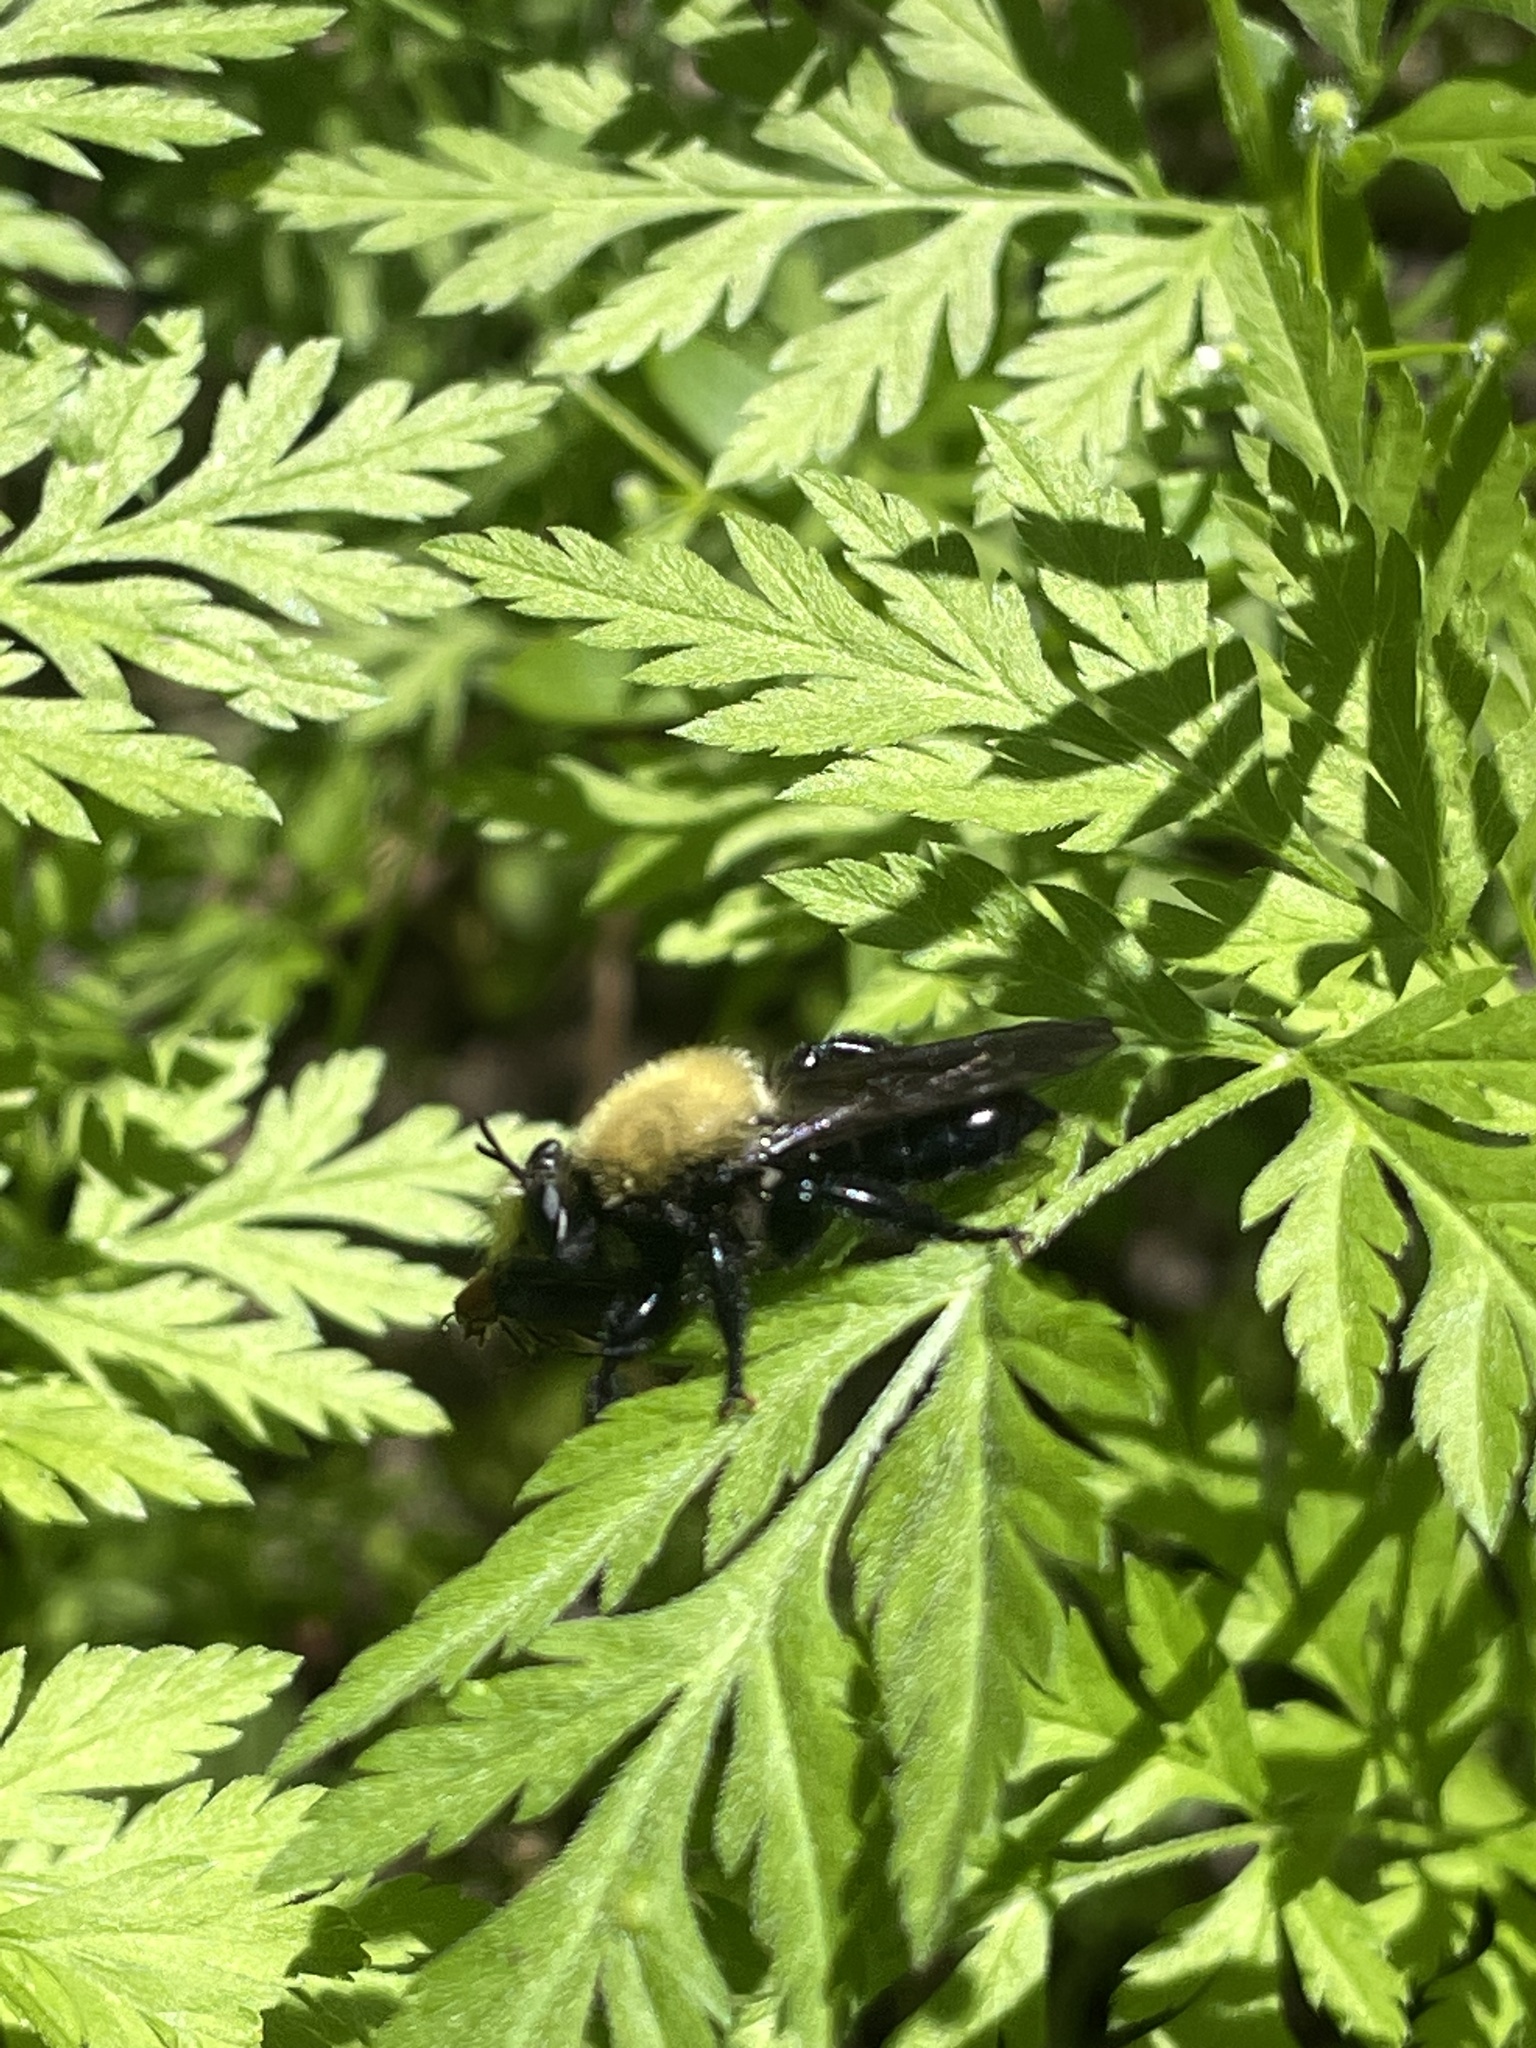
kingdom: Animalia
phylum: Arthropoda
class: Insecta
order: Diptera
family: Asilidae
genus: Laphria
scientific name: Laphria flavicollis
